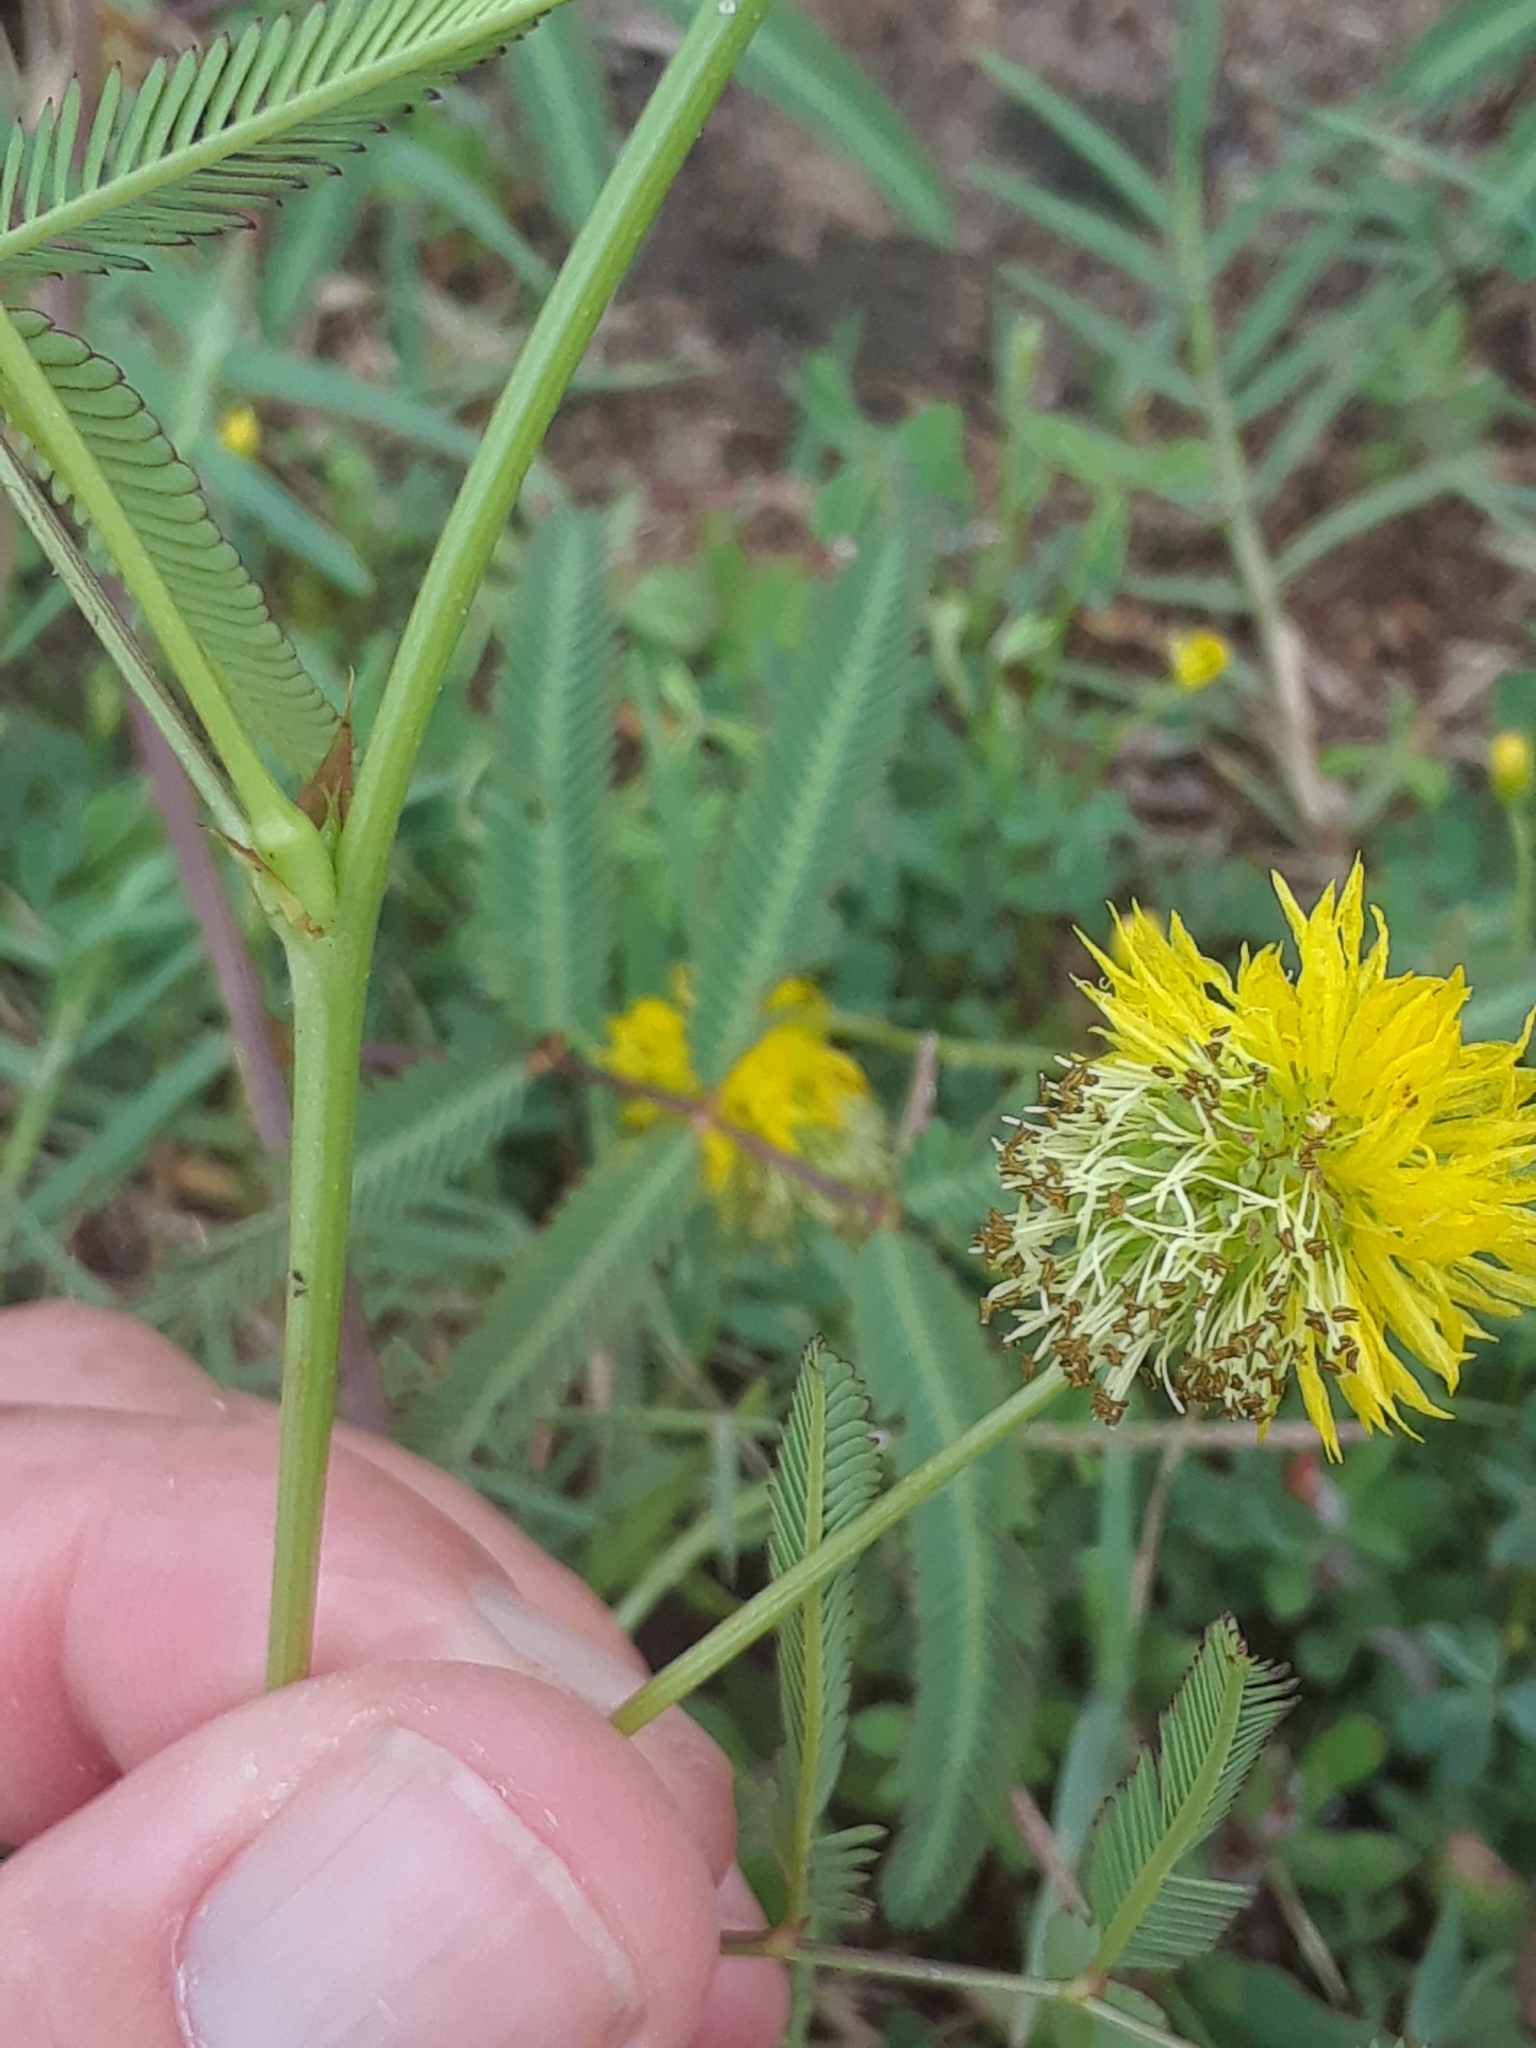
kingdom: Plantae
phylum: Tracheophyta
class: Magnoliopsida
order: Fabales
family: Fabaceae
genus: Neptunia
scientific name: Neptunia pubescens
